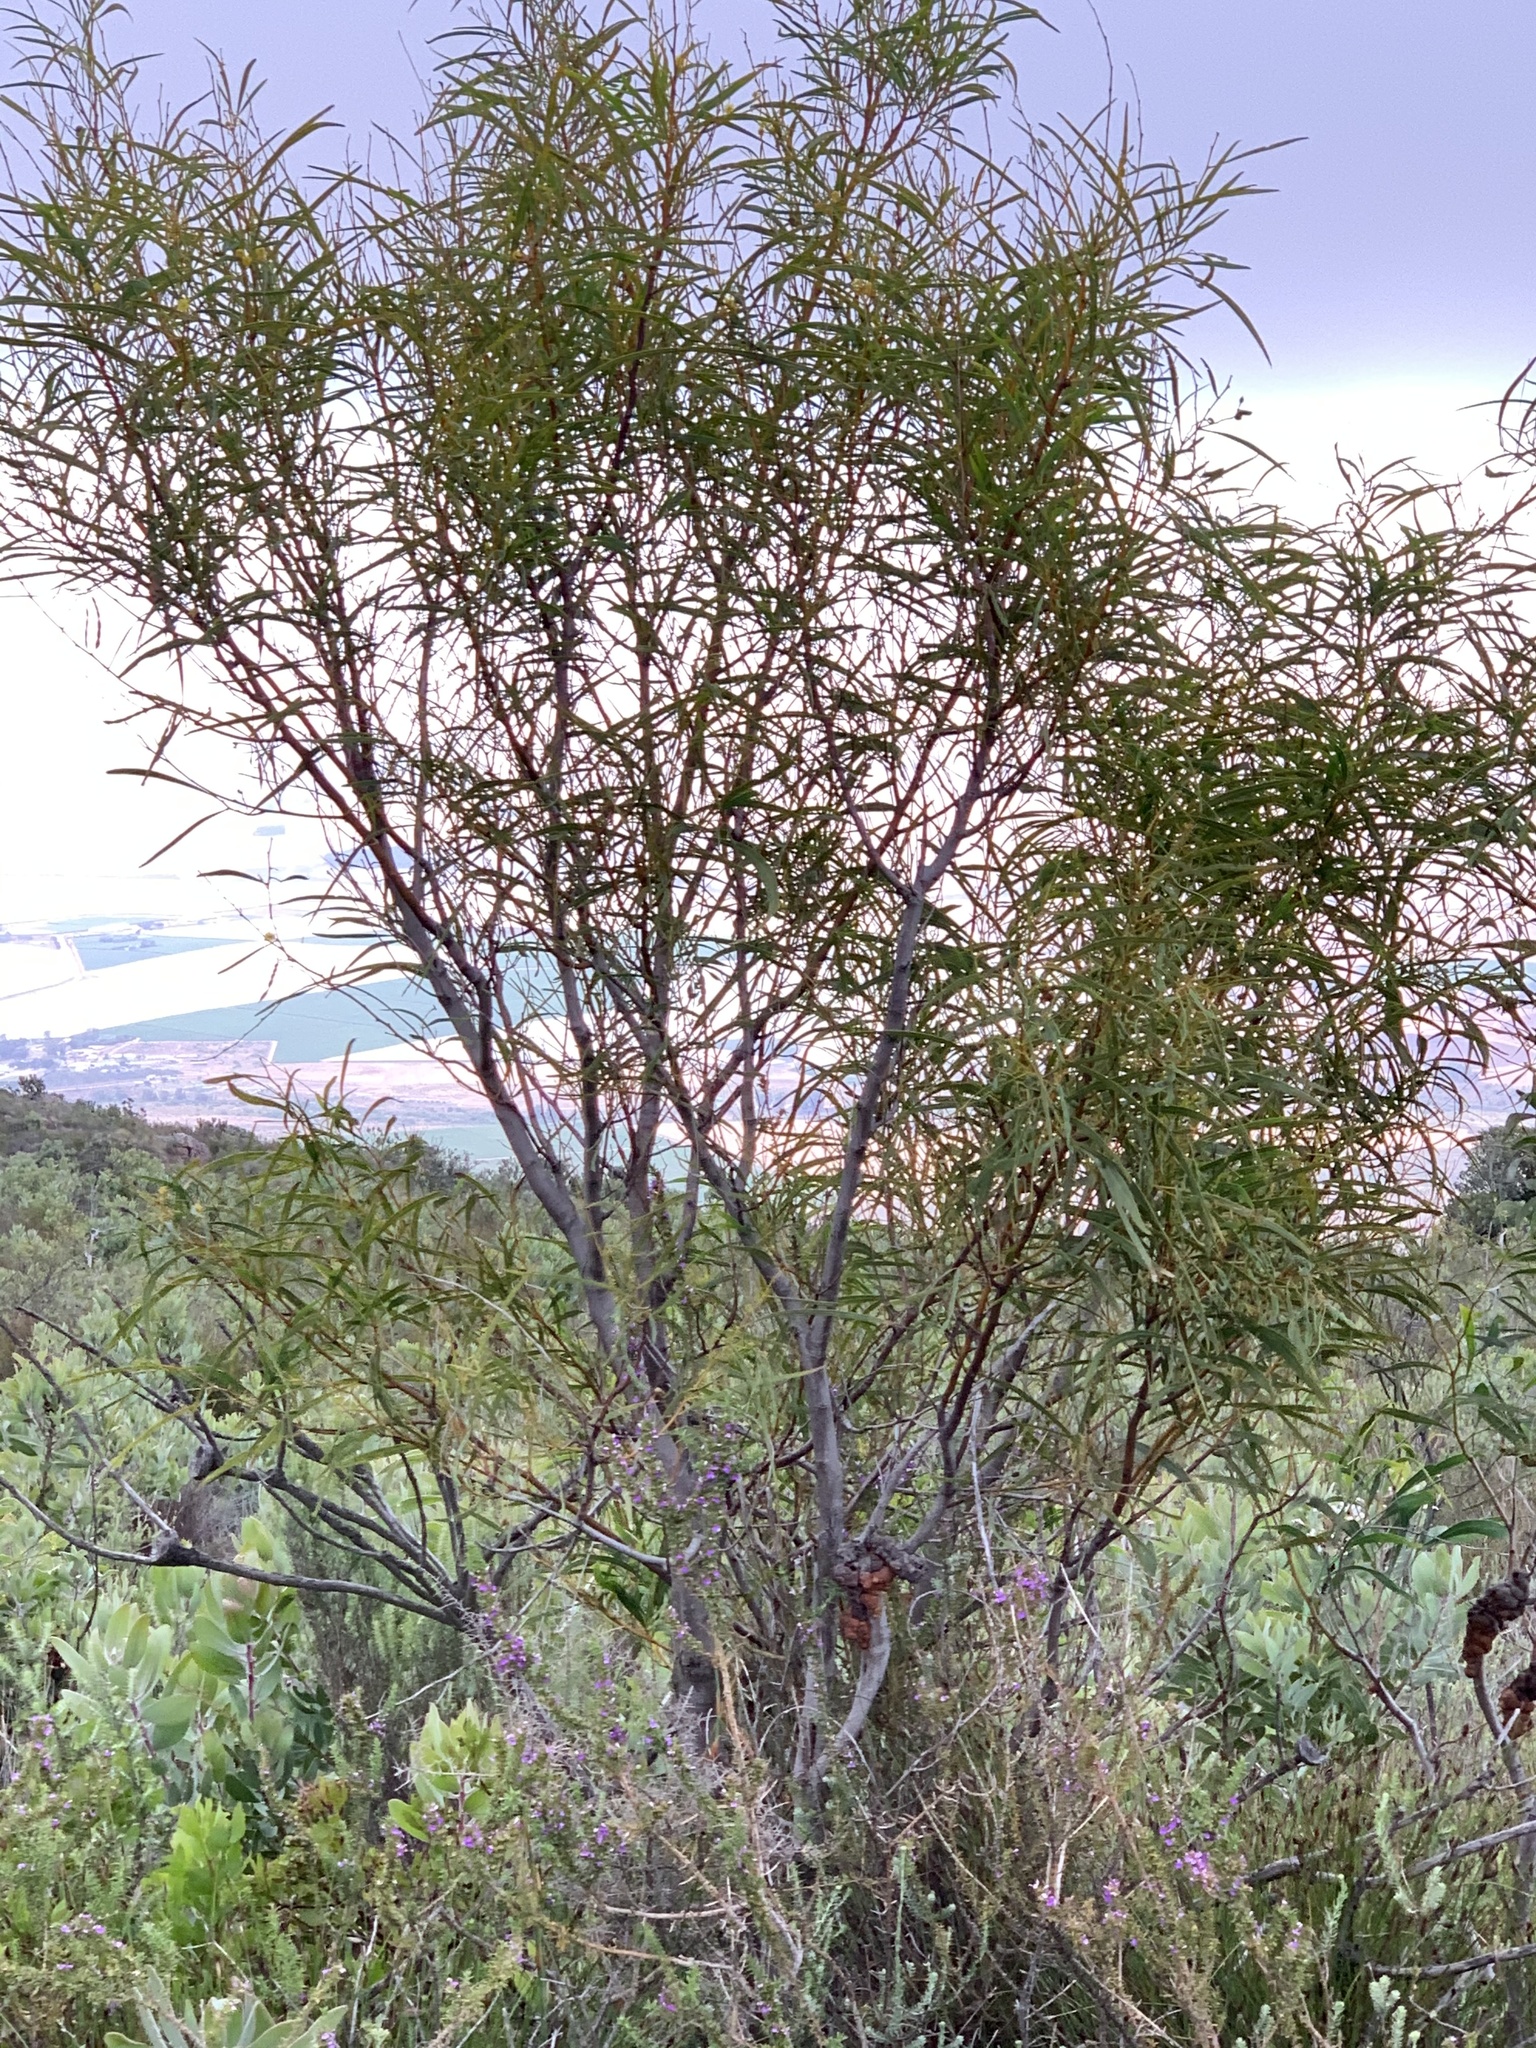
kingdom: Plantae
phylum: Tracheophyta
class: Magnoliopsida
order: Fabales
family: Fabaceae
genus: Acacia
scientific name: Acacia saligna
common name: Orange wattle
